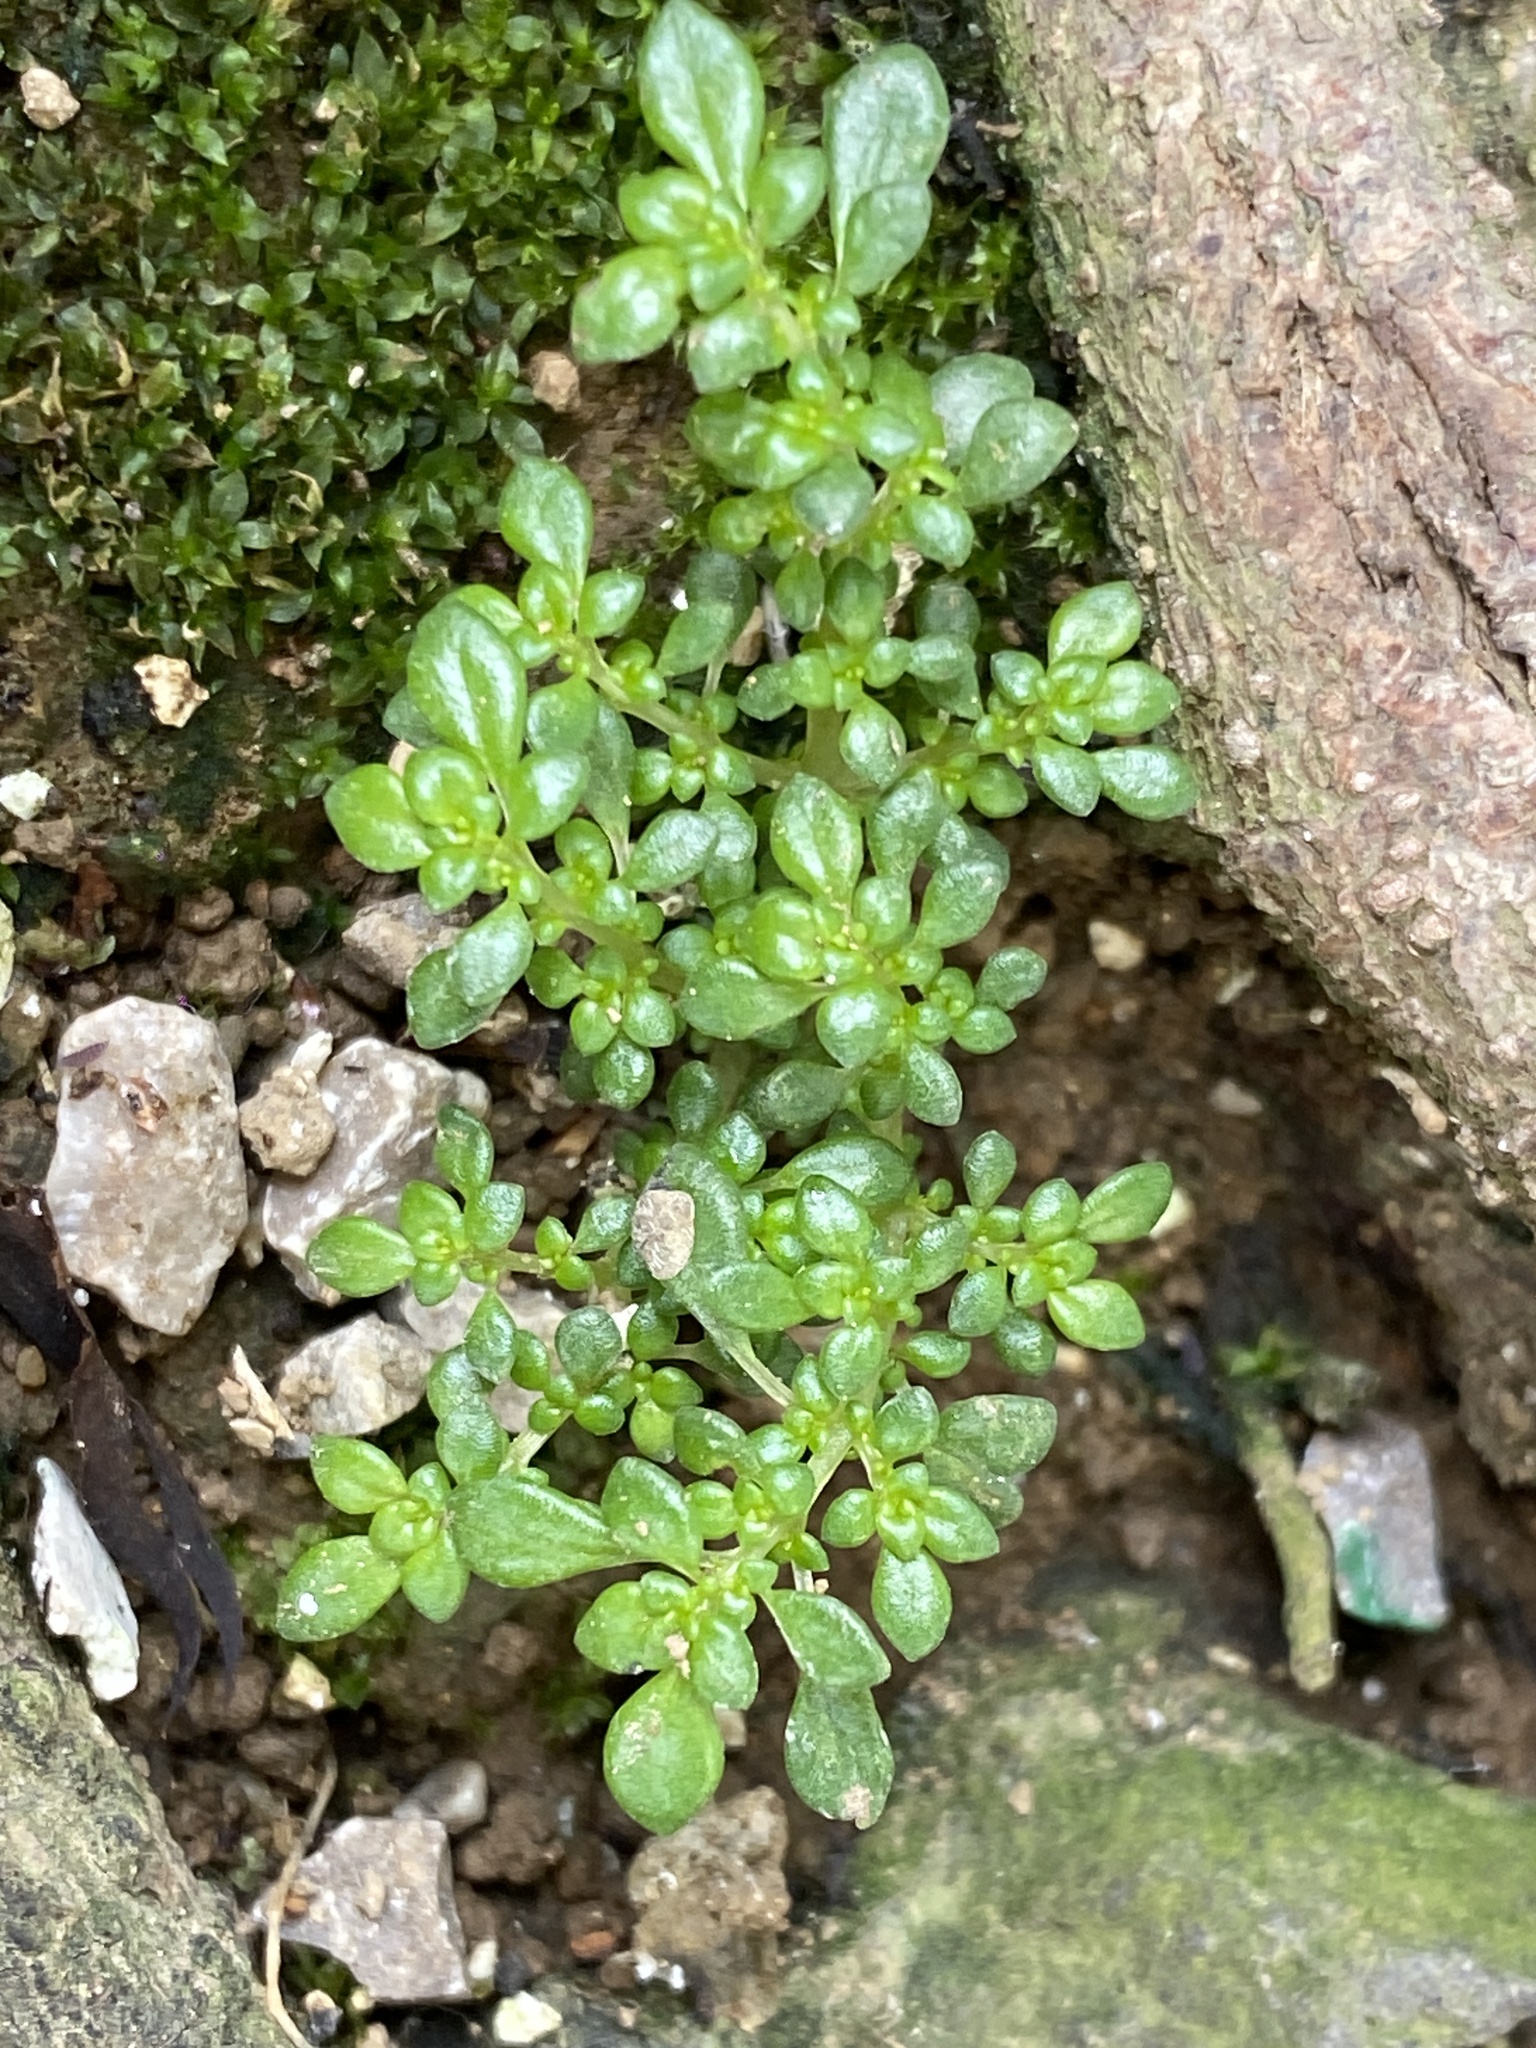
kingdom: Plantae
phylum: Tracheophyta
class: Magnoliopsida
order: Rosales
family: Urticaceae
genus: Pilea
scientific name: Pilea microphylla
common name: Artillery-plant
